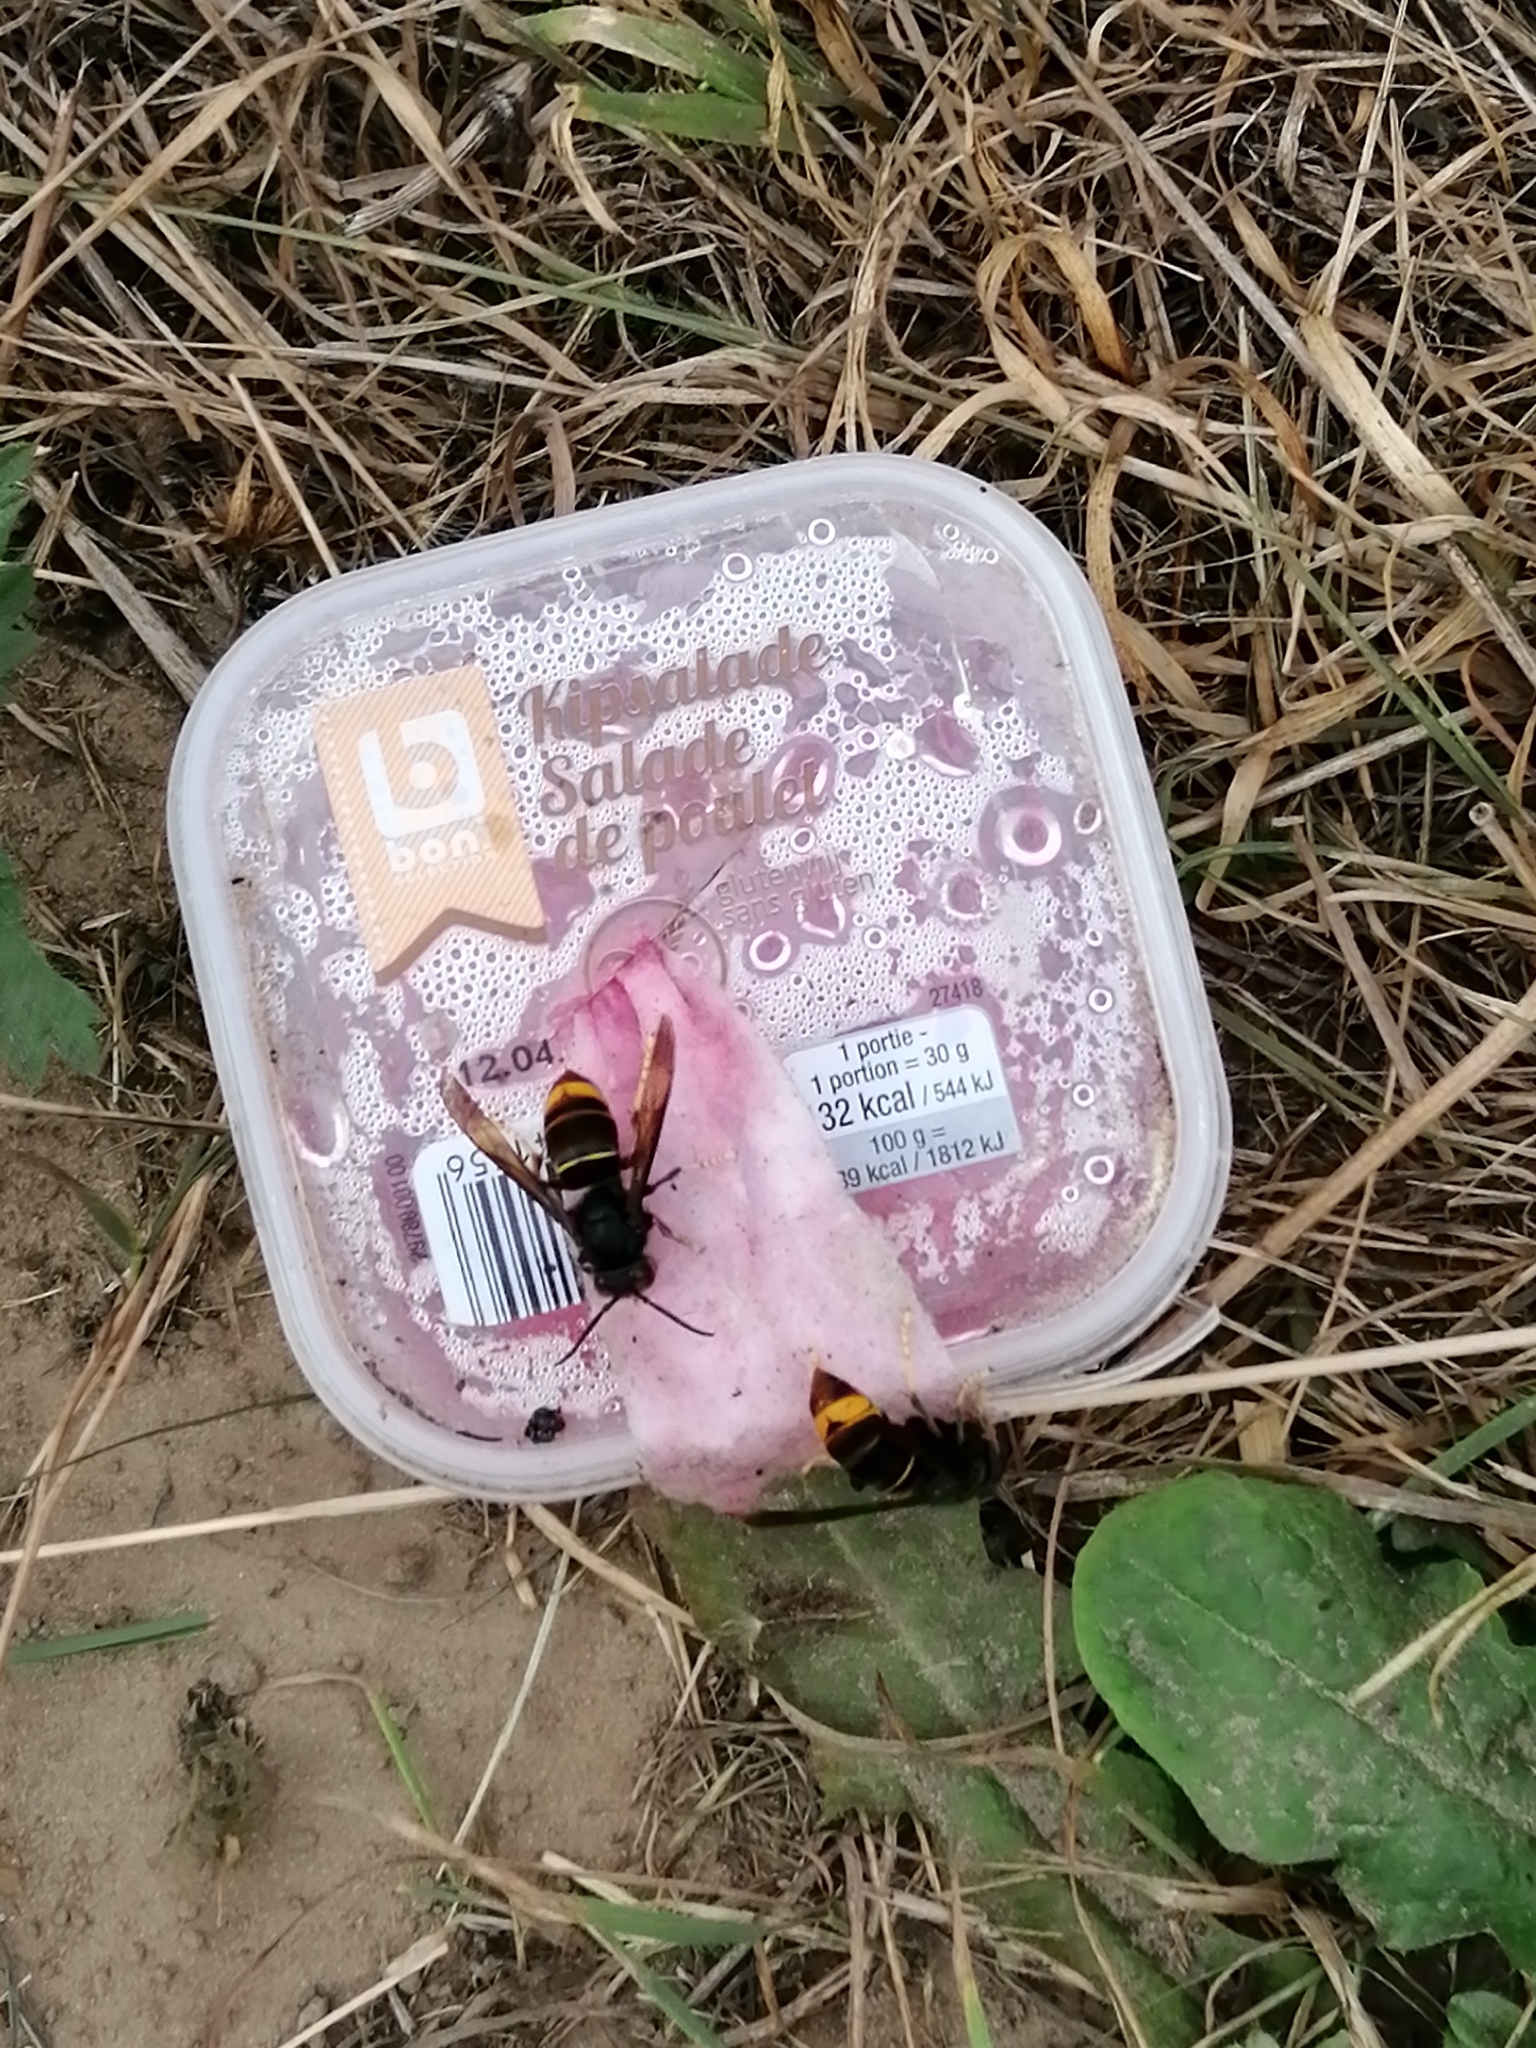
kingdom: Animalia
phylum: Arthropoda
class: Insecta
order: Hymenoptera
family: Vespidae
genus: Vespa
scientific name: Vespa velutina
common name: Asian hornet
